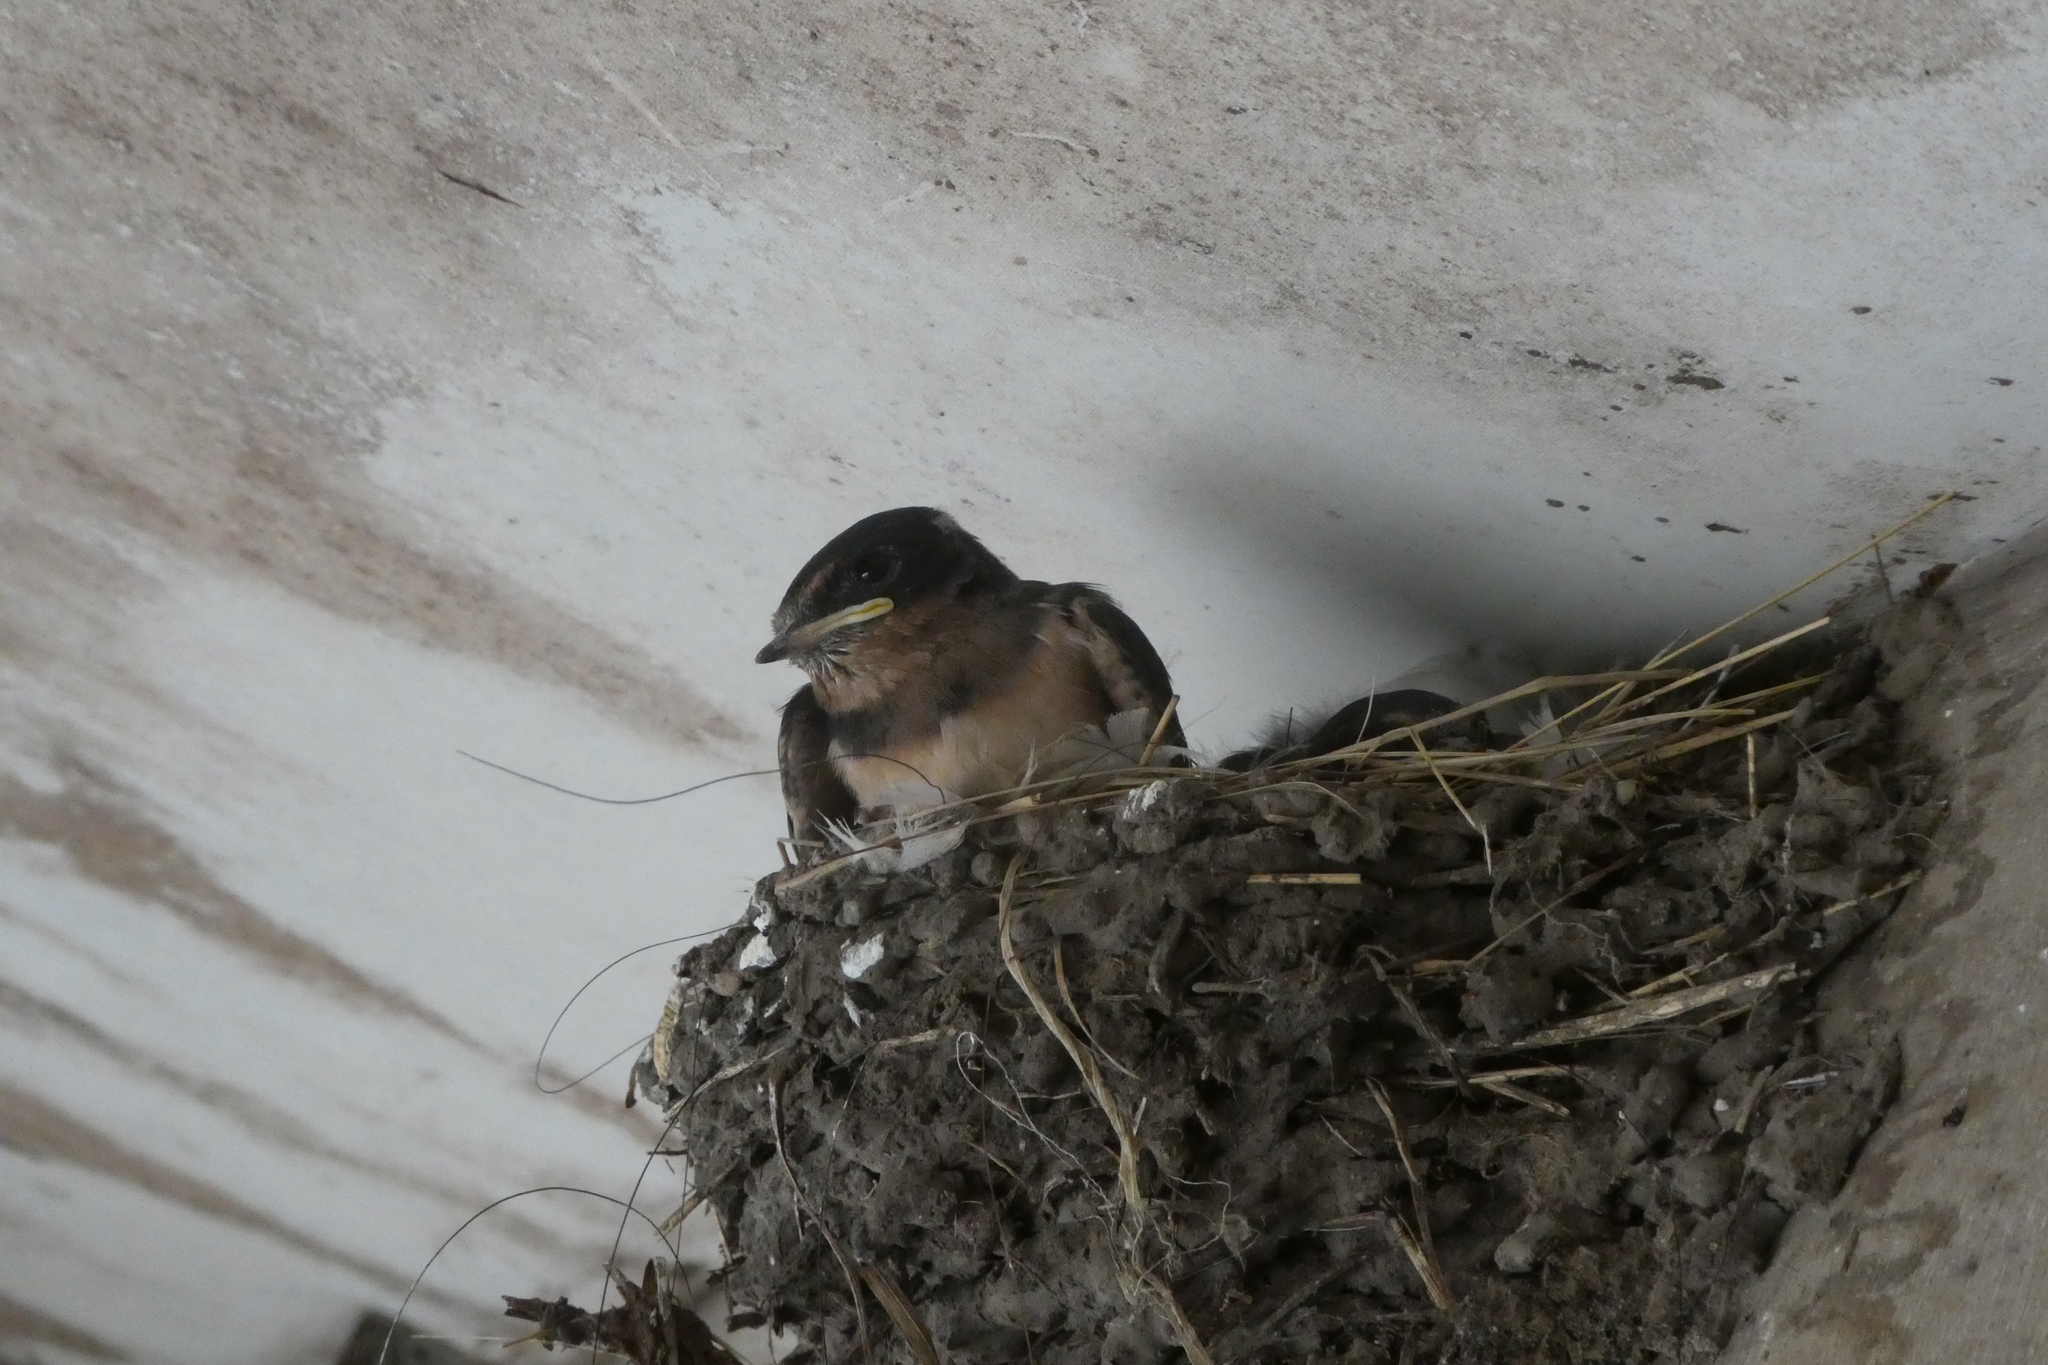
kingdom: Animalia
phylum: Chordata
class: Aves
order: Passeriformes
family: Hirundinidae
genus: Hirundo
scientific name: Hirundo rustica
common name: Barn swallow
